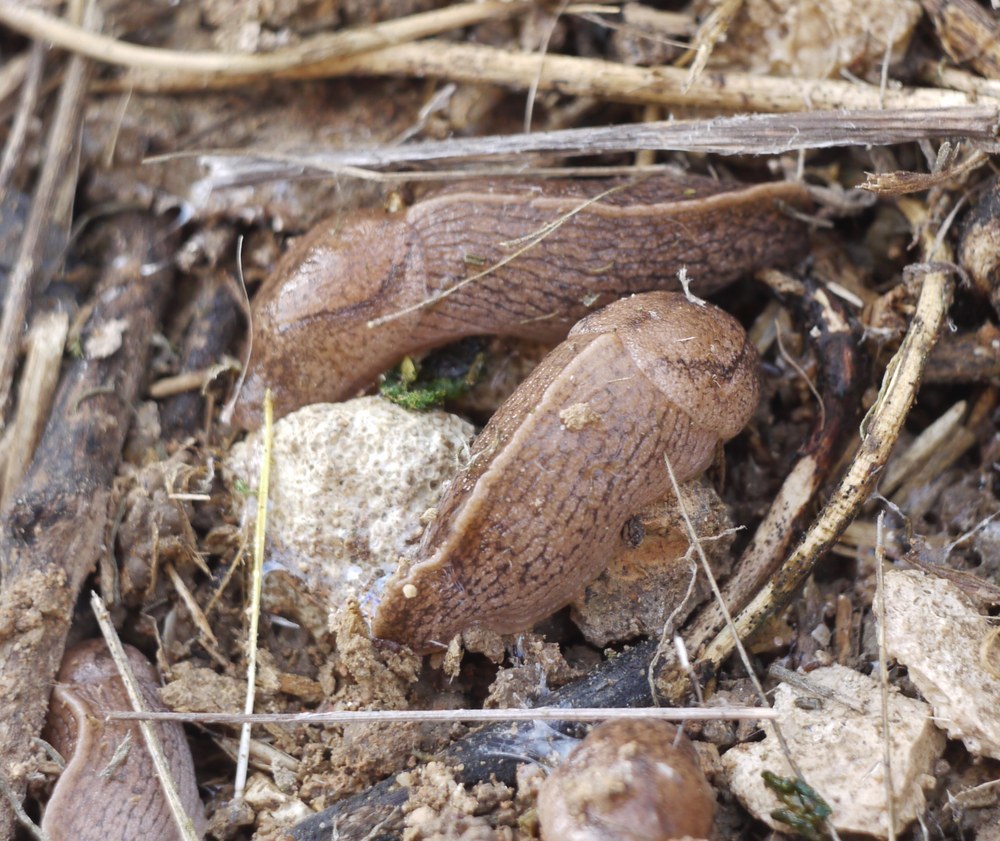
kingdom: Animalia
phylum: Mollusca
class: Gastropoda
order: Stylommatophora
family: Milacidae
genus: Tandonia
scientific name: Tandonia kusceri
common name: Keeled slug
